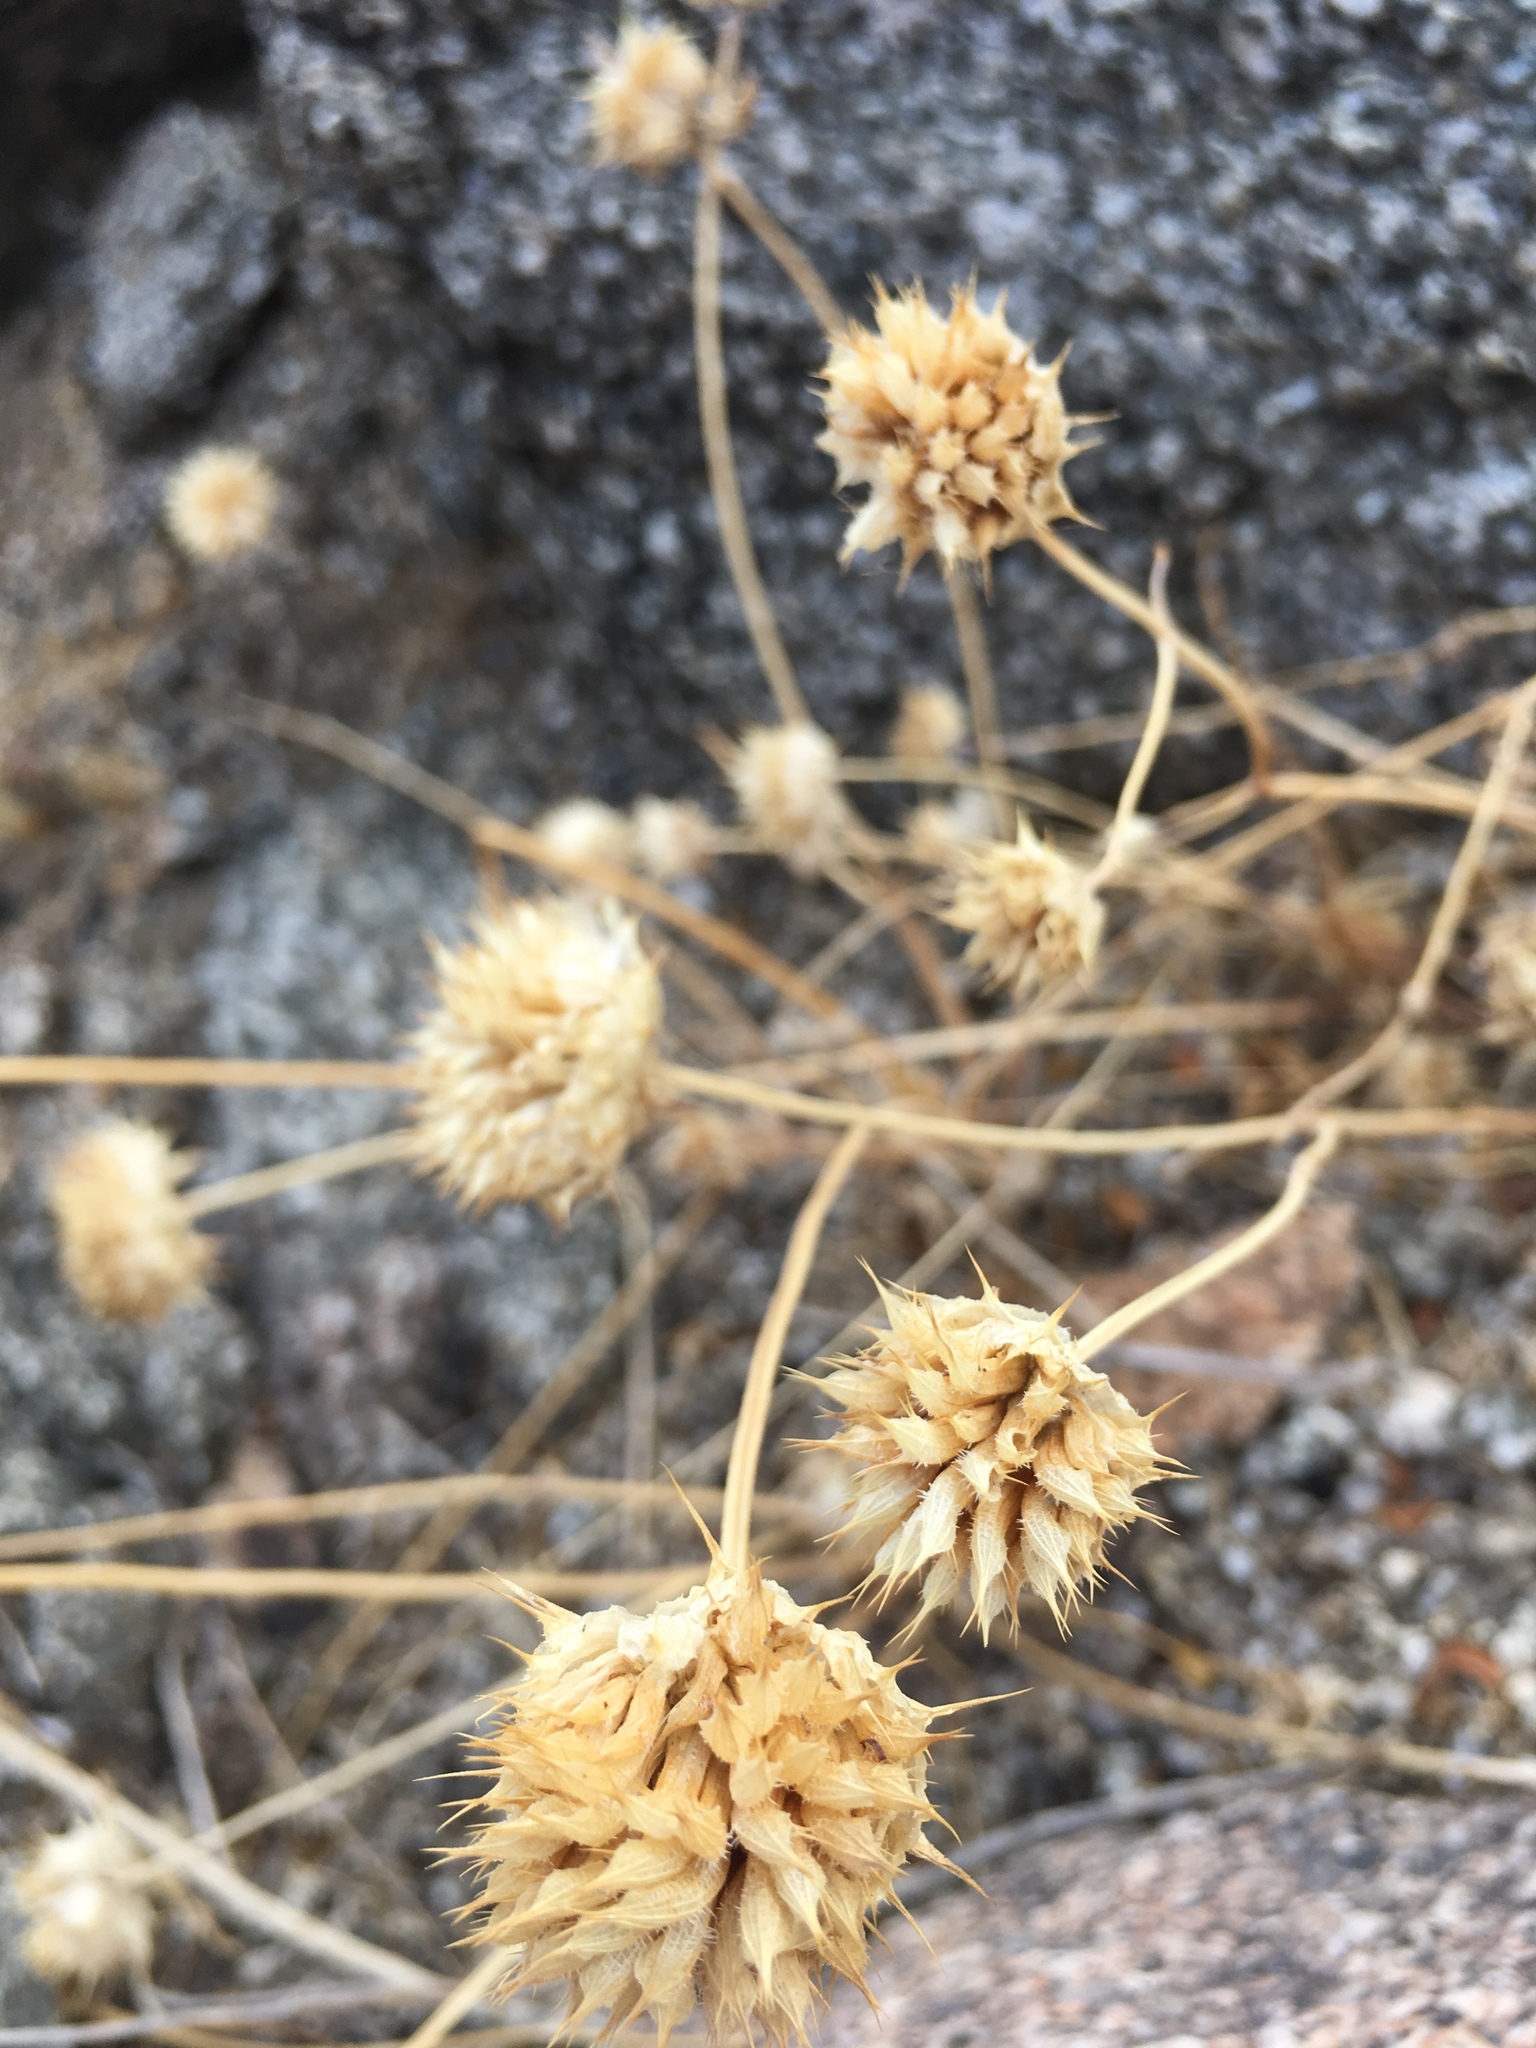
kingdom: Plantae
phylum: Tracheophyta
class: Magnoliopsida
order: Lamiales
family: Lamiaceae
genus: Salvia
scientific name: Salvia columbariae
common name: Chia
